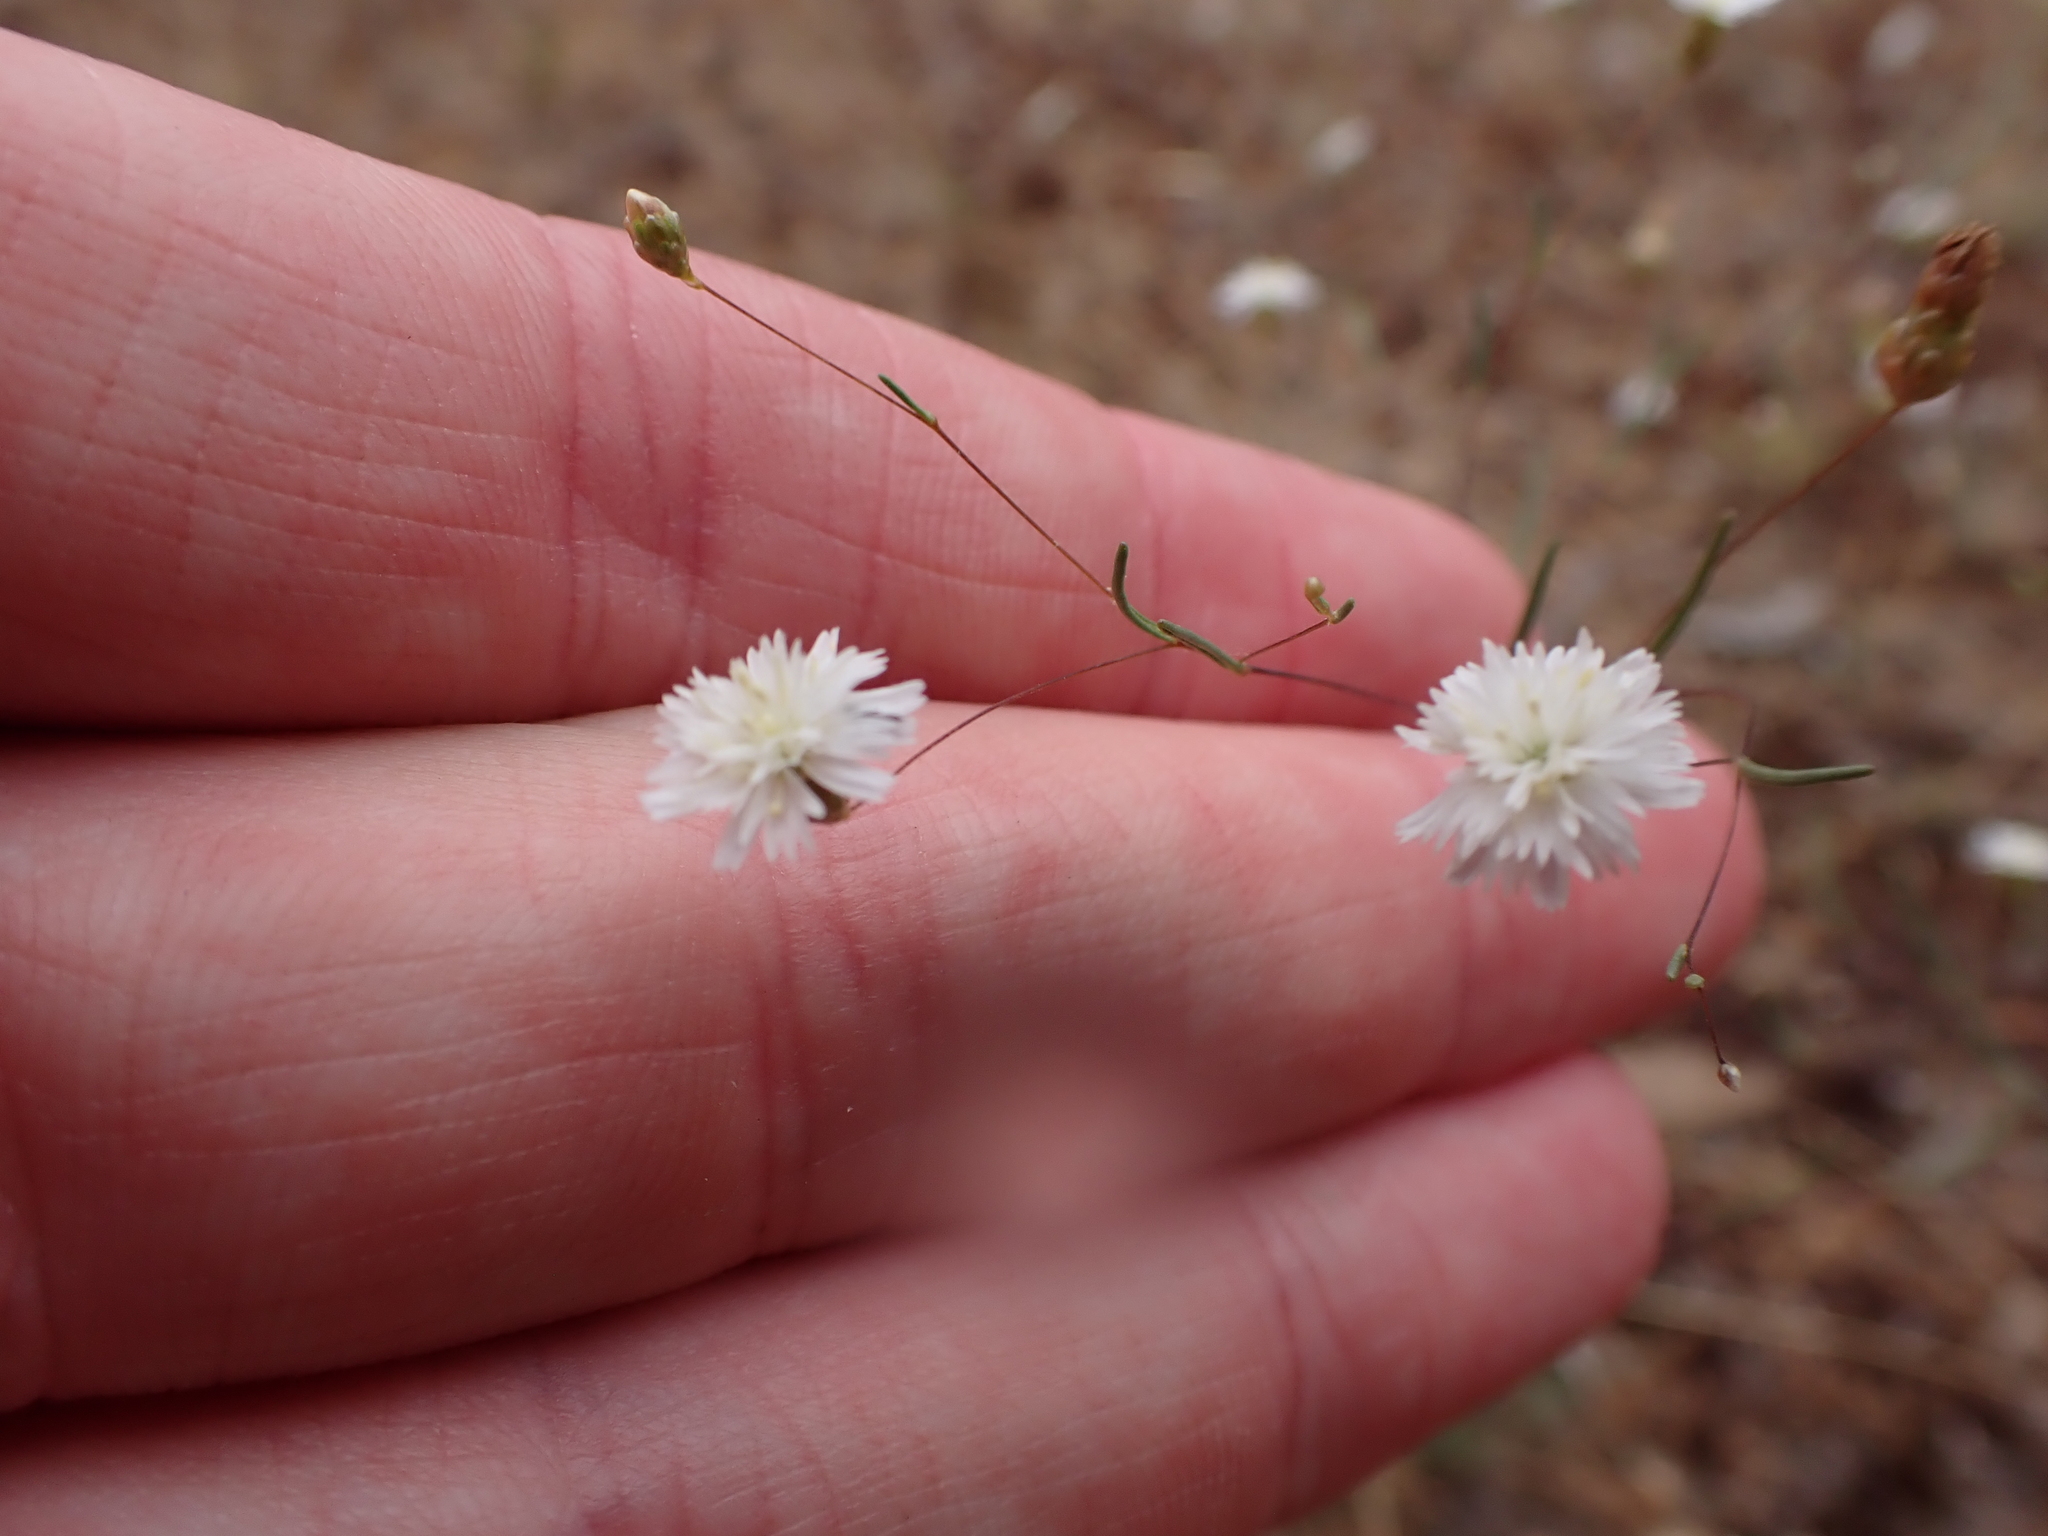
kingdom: Plantae
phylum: Tracheophyta
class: Magnoliopsida
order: Asterales
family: Asteraceae
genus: Siemssenia
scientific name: Siemssenia capillaris
